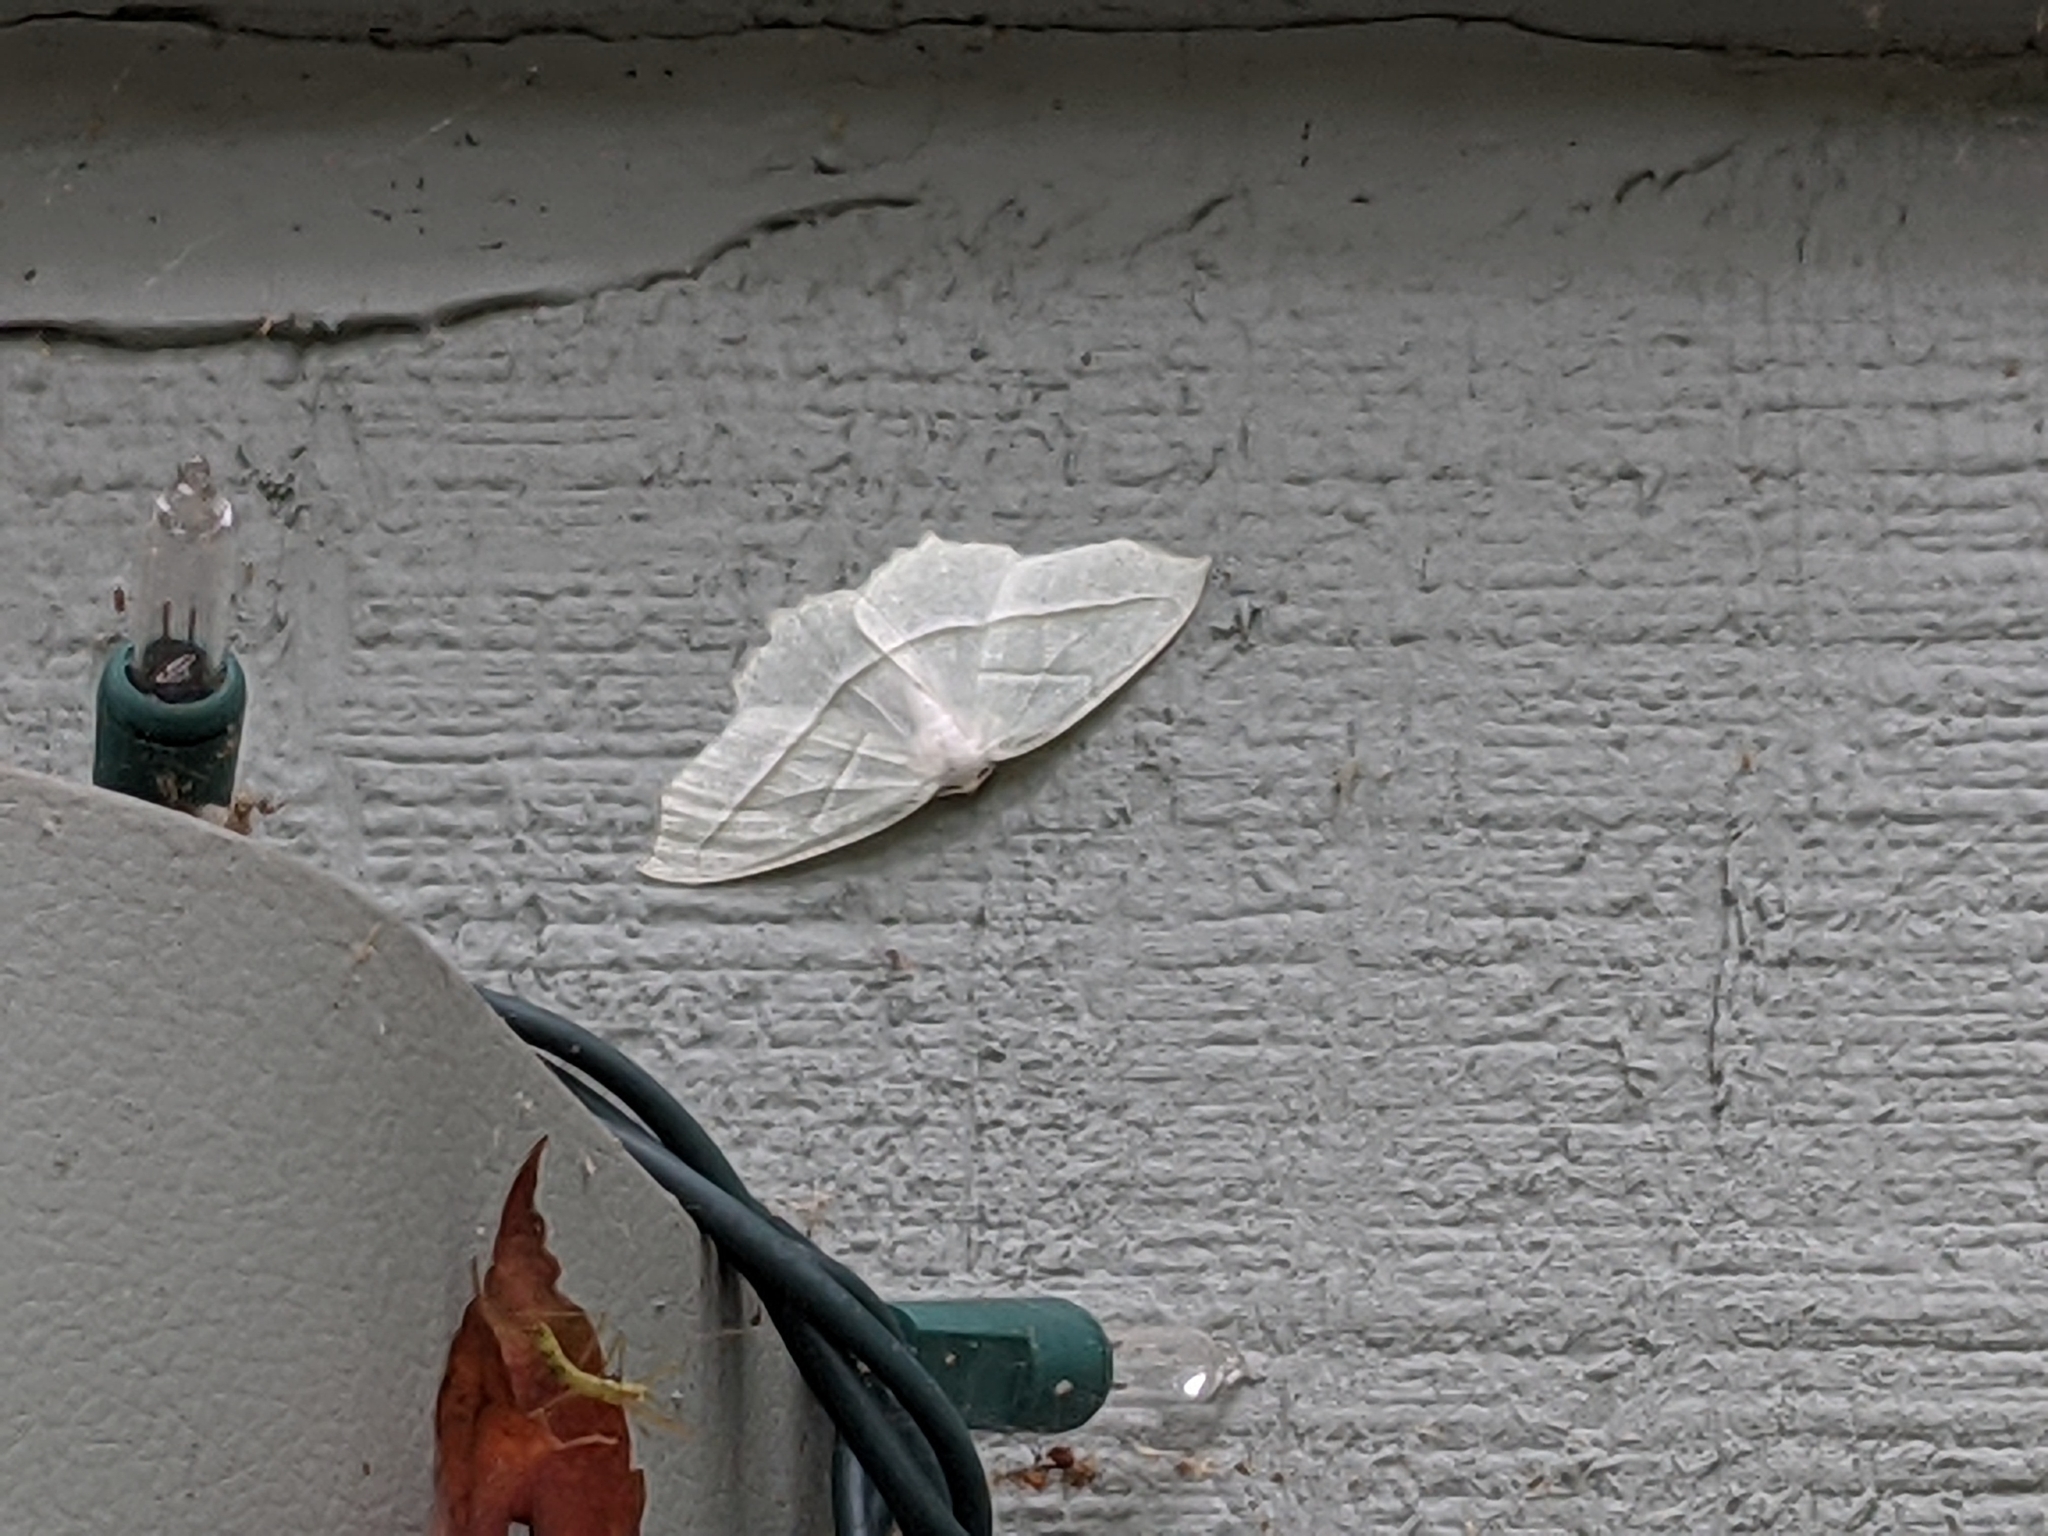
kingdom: Animalia
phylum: Arthropoda
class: Insecta
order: Lepidoptera
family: Geometridae
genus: Campaea
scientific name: Campaea perlata
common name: Fringed looper
